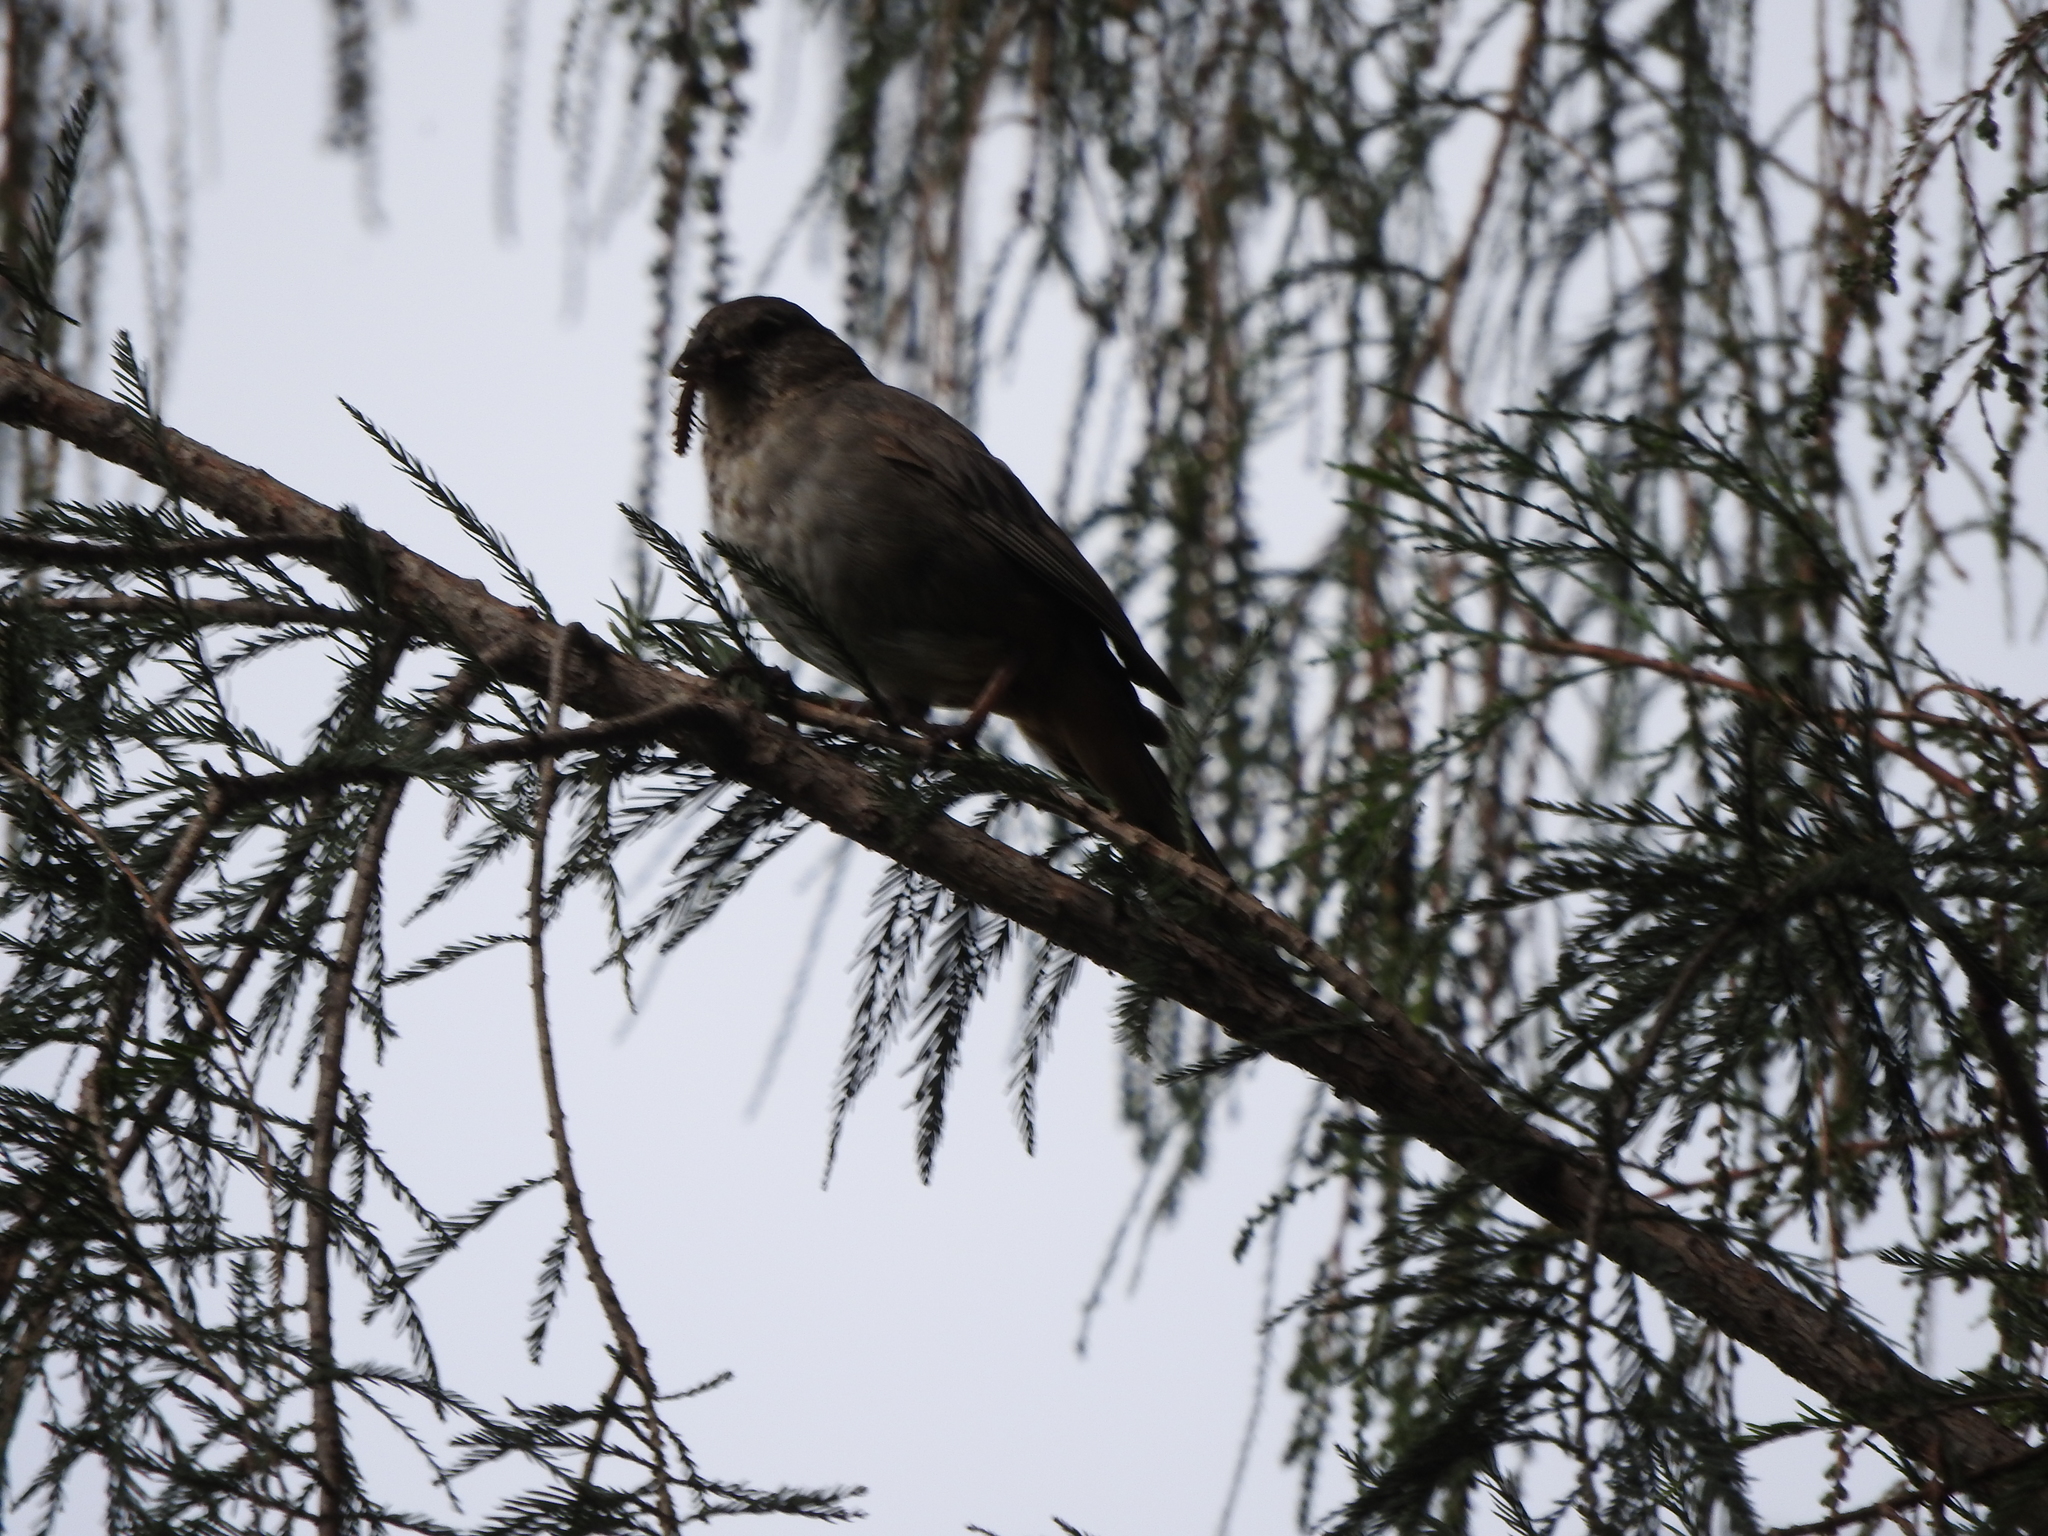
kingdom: Animalia
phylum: Chordata
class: Aves
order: Passeriformes
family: Passerellidae
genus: Melozone
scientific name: Melozone fusca
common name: Canyon towhee
